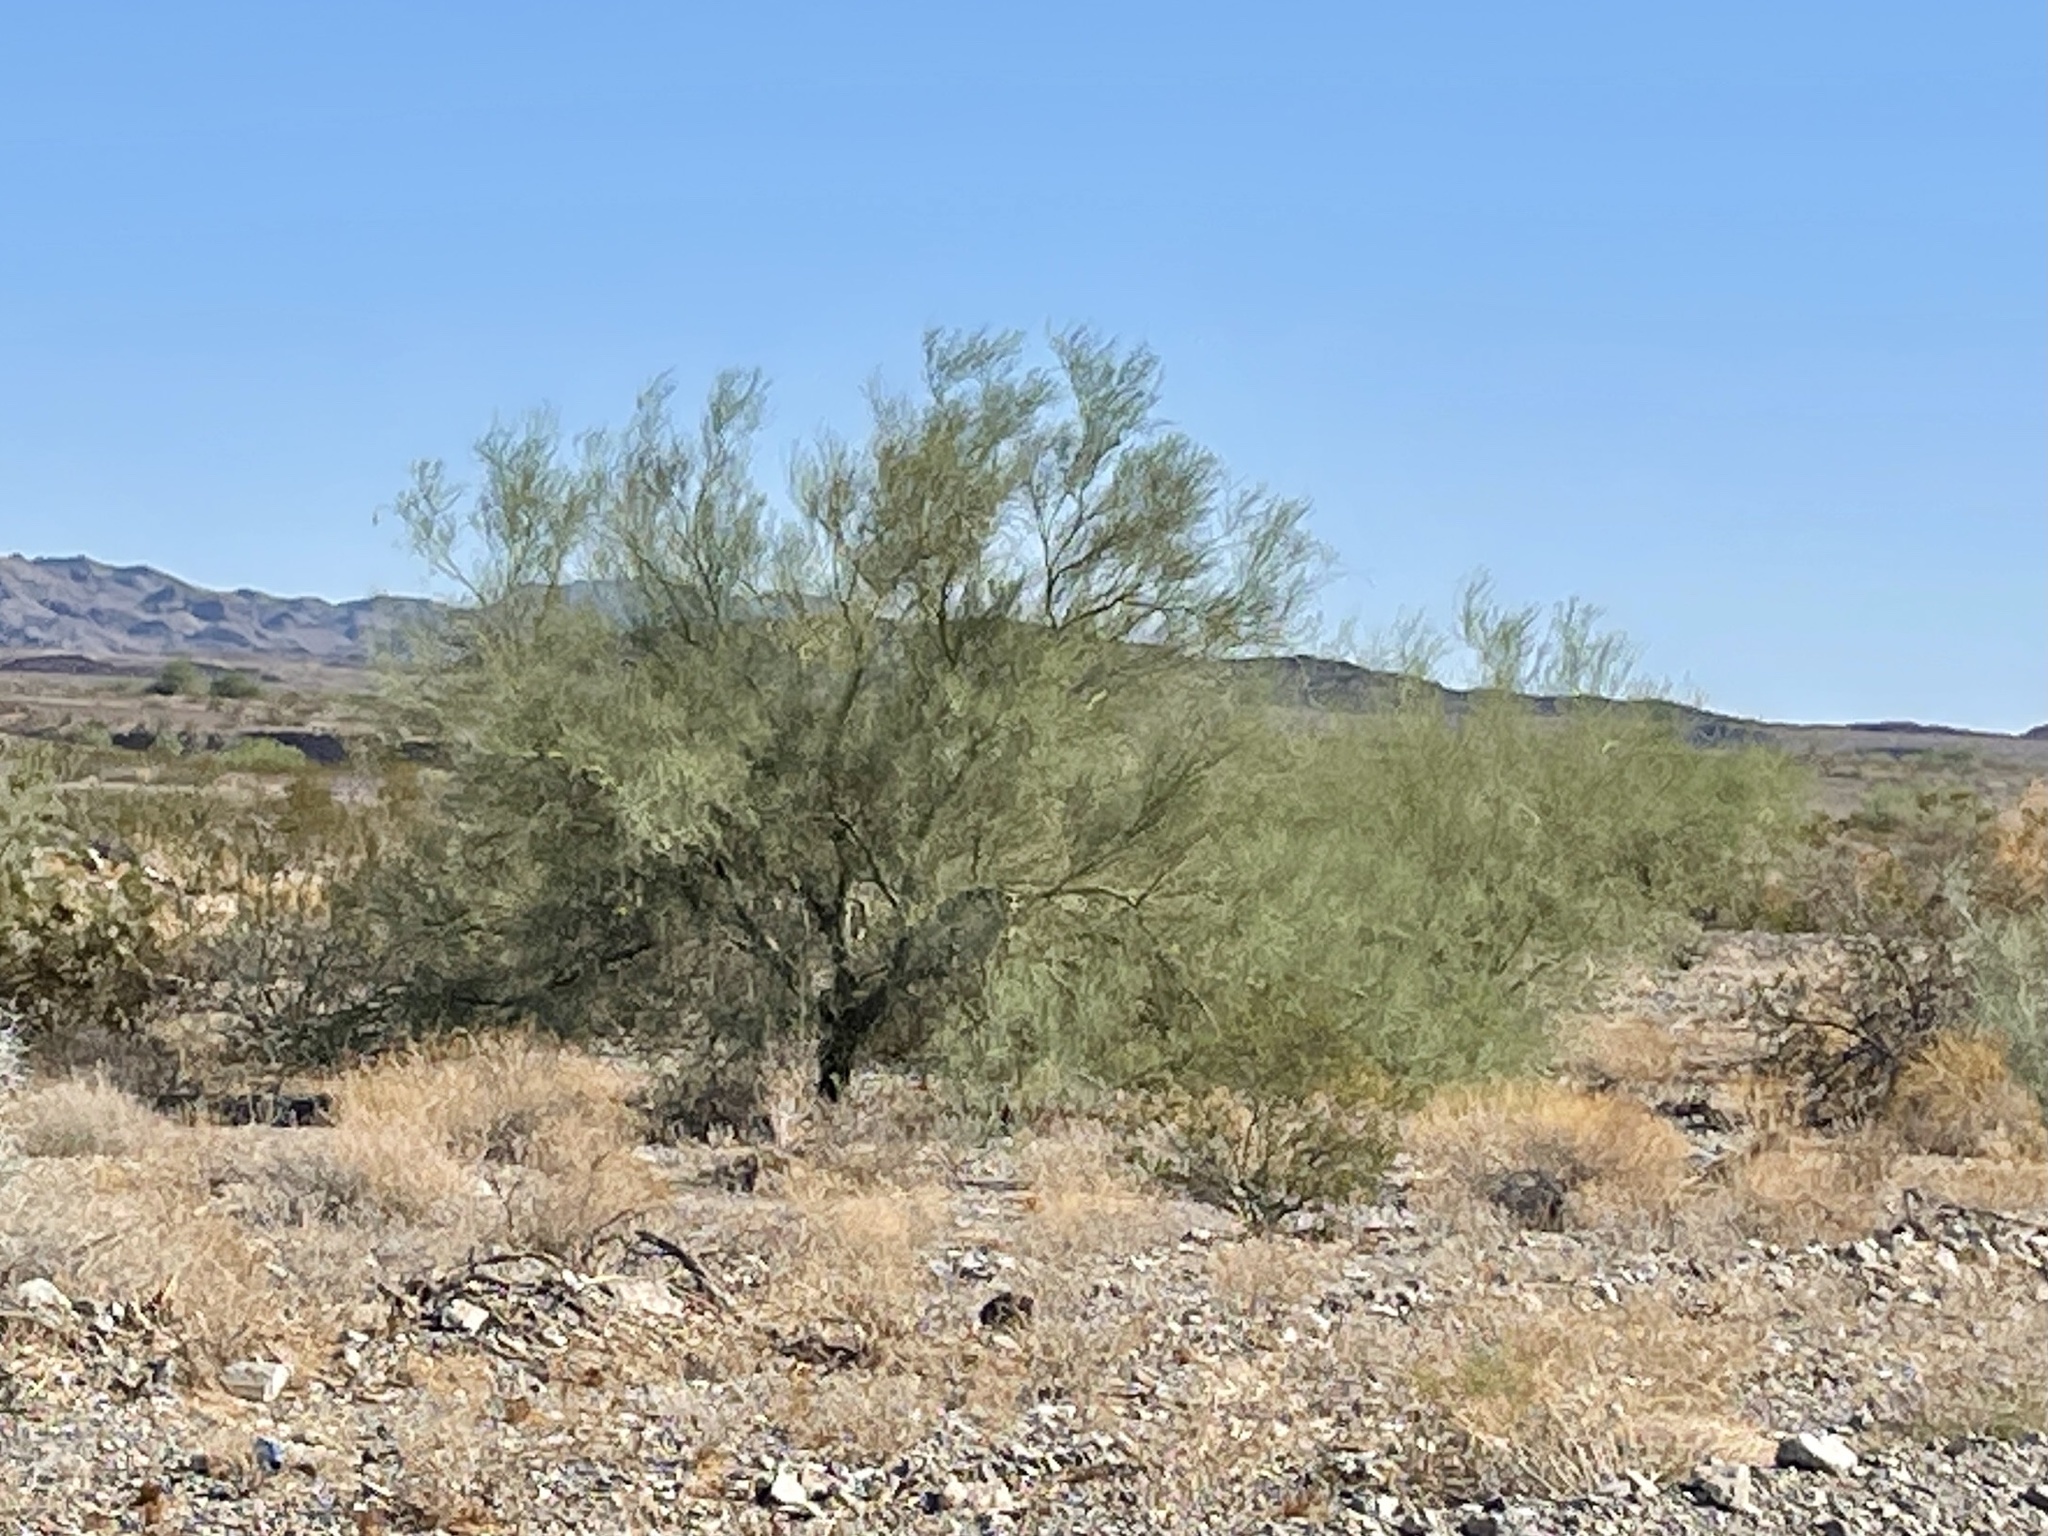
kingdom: Plantae
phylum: Tracheophyta
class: Magnoliopsida
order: Fabales
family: Fabaceae
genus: Parkinsonia
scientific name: Parkinsonia florida
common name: Blue paloverde
